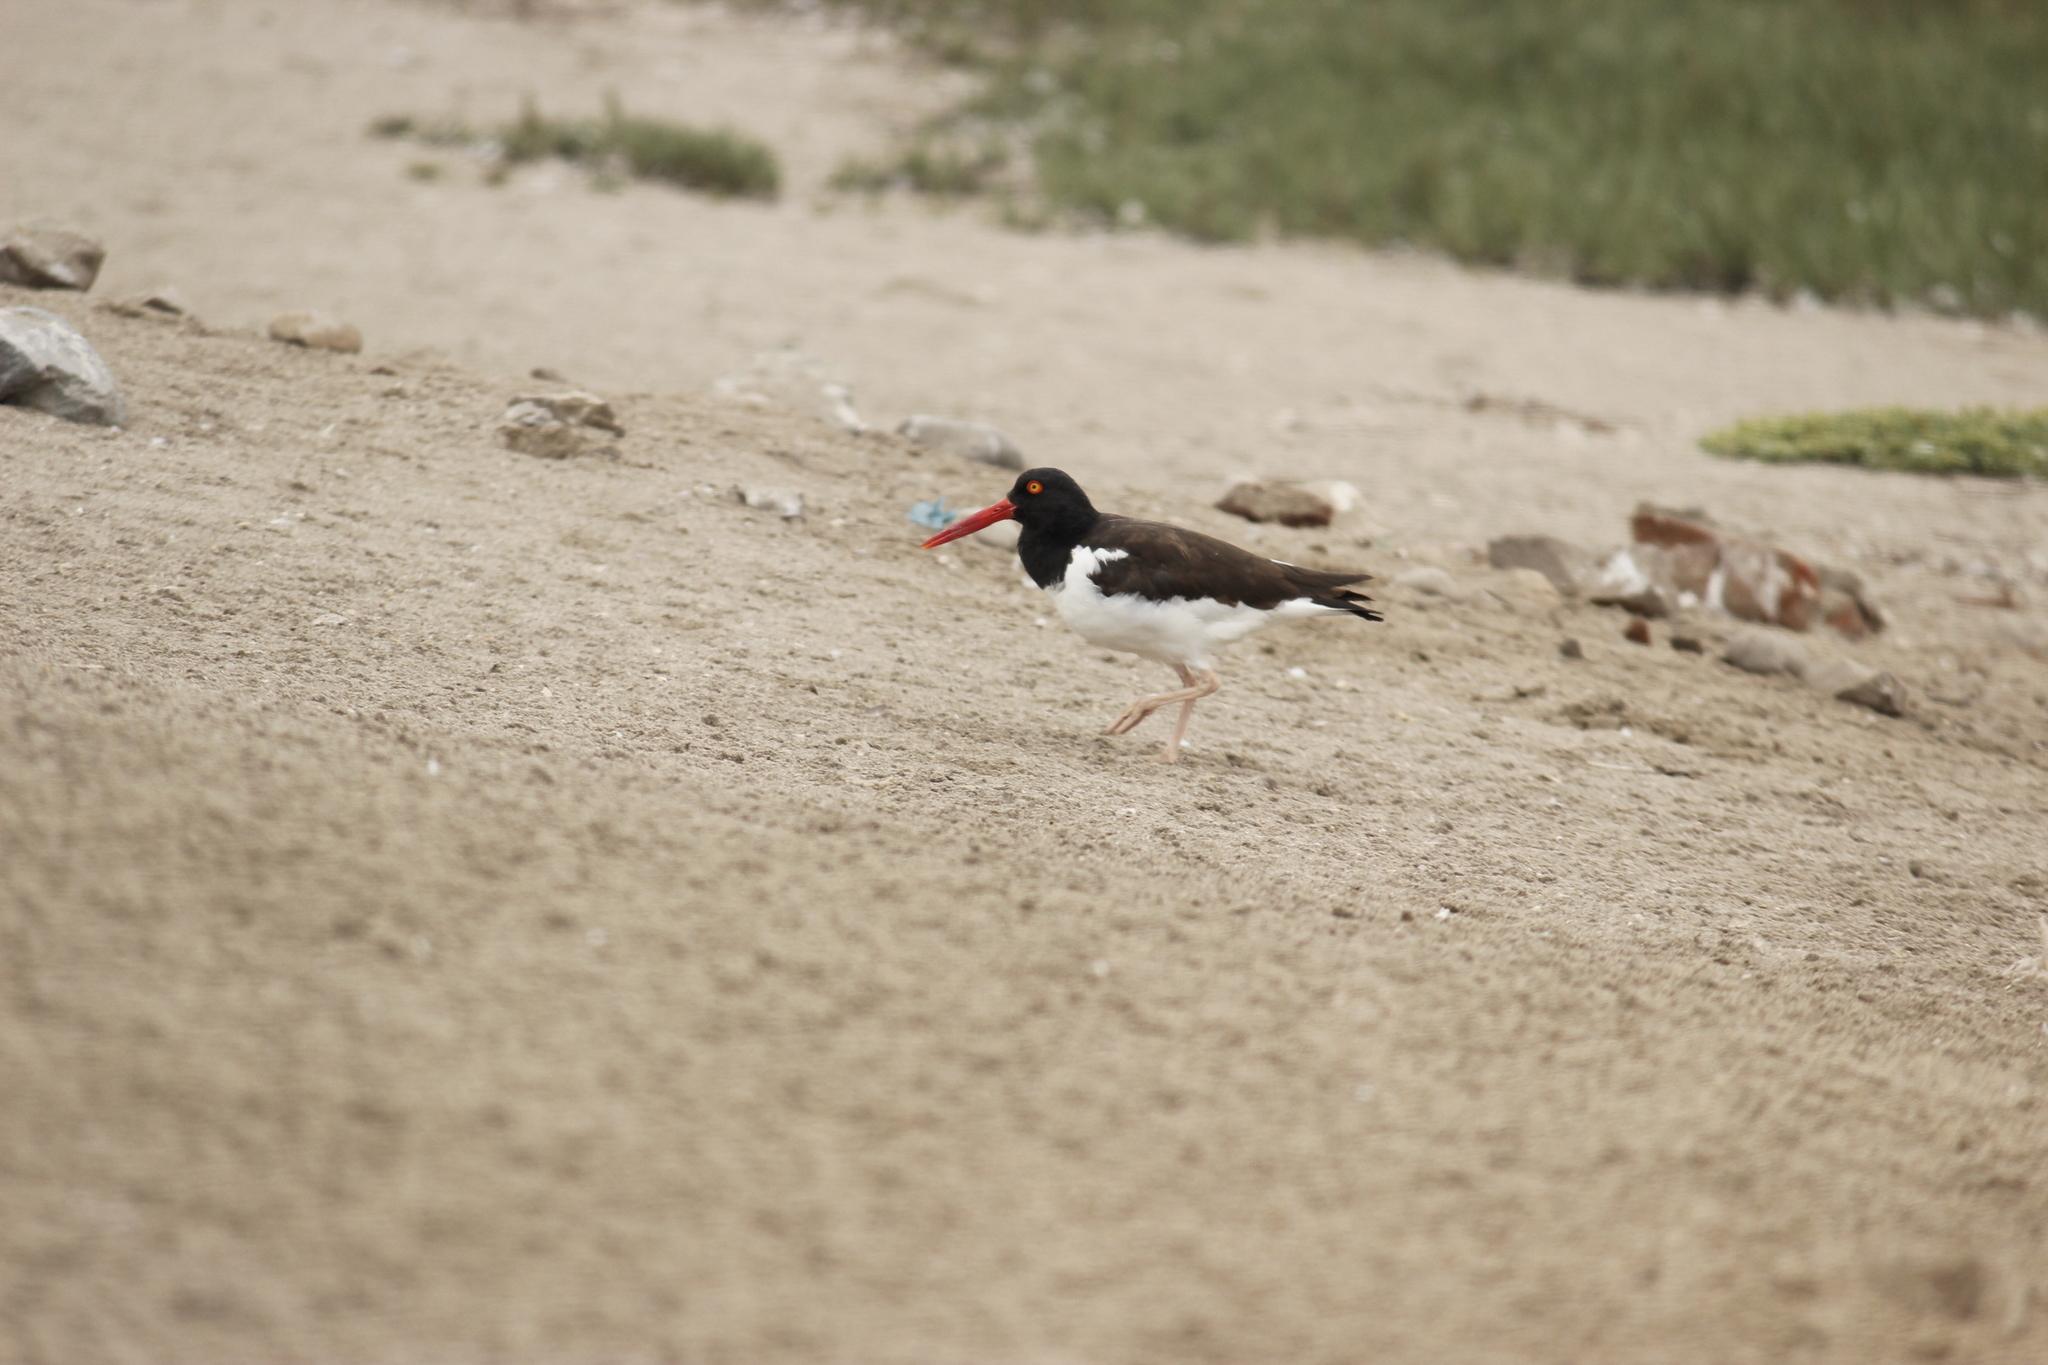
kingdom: Animalia
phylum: Chordata
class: Aves
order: Charadriiformes
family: Haematopodidae
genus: Haematopus
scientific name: Haematopus palliatus
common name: American oystercatcher
